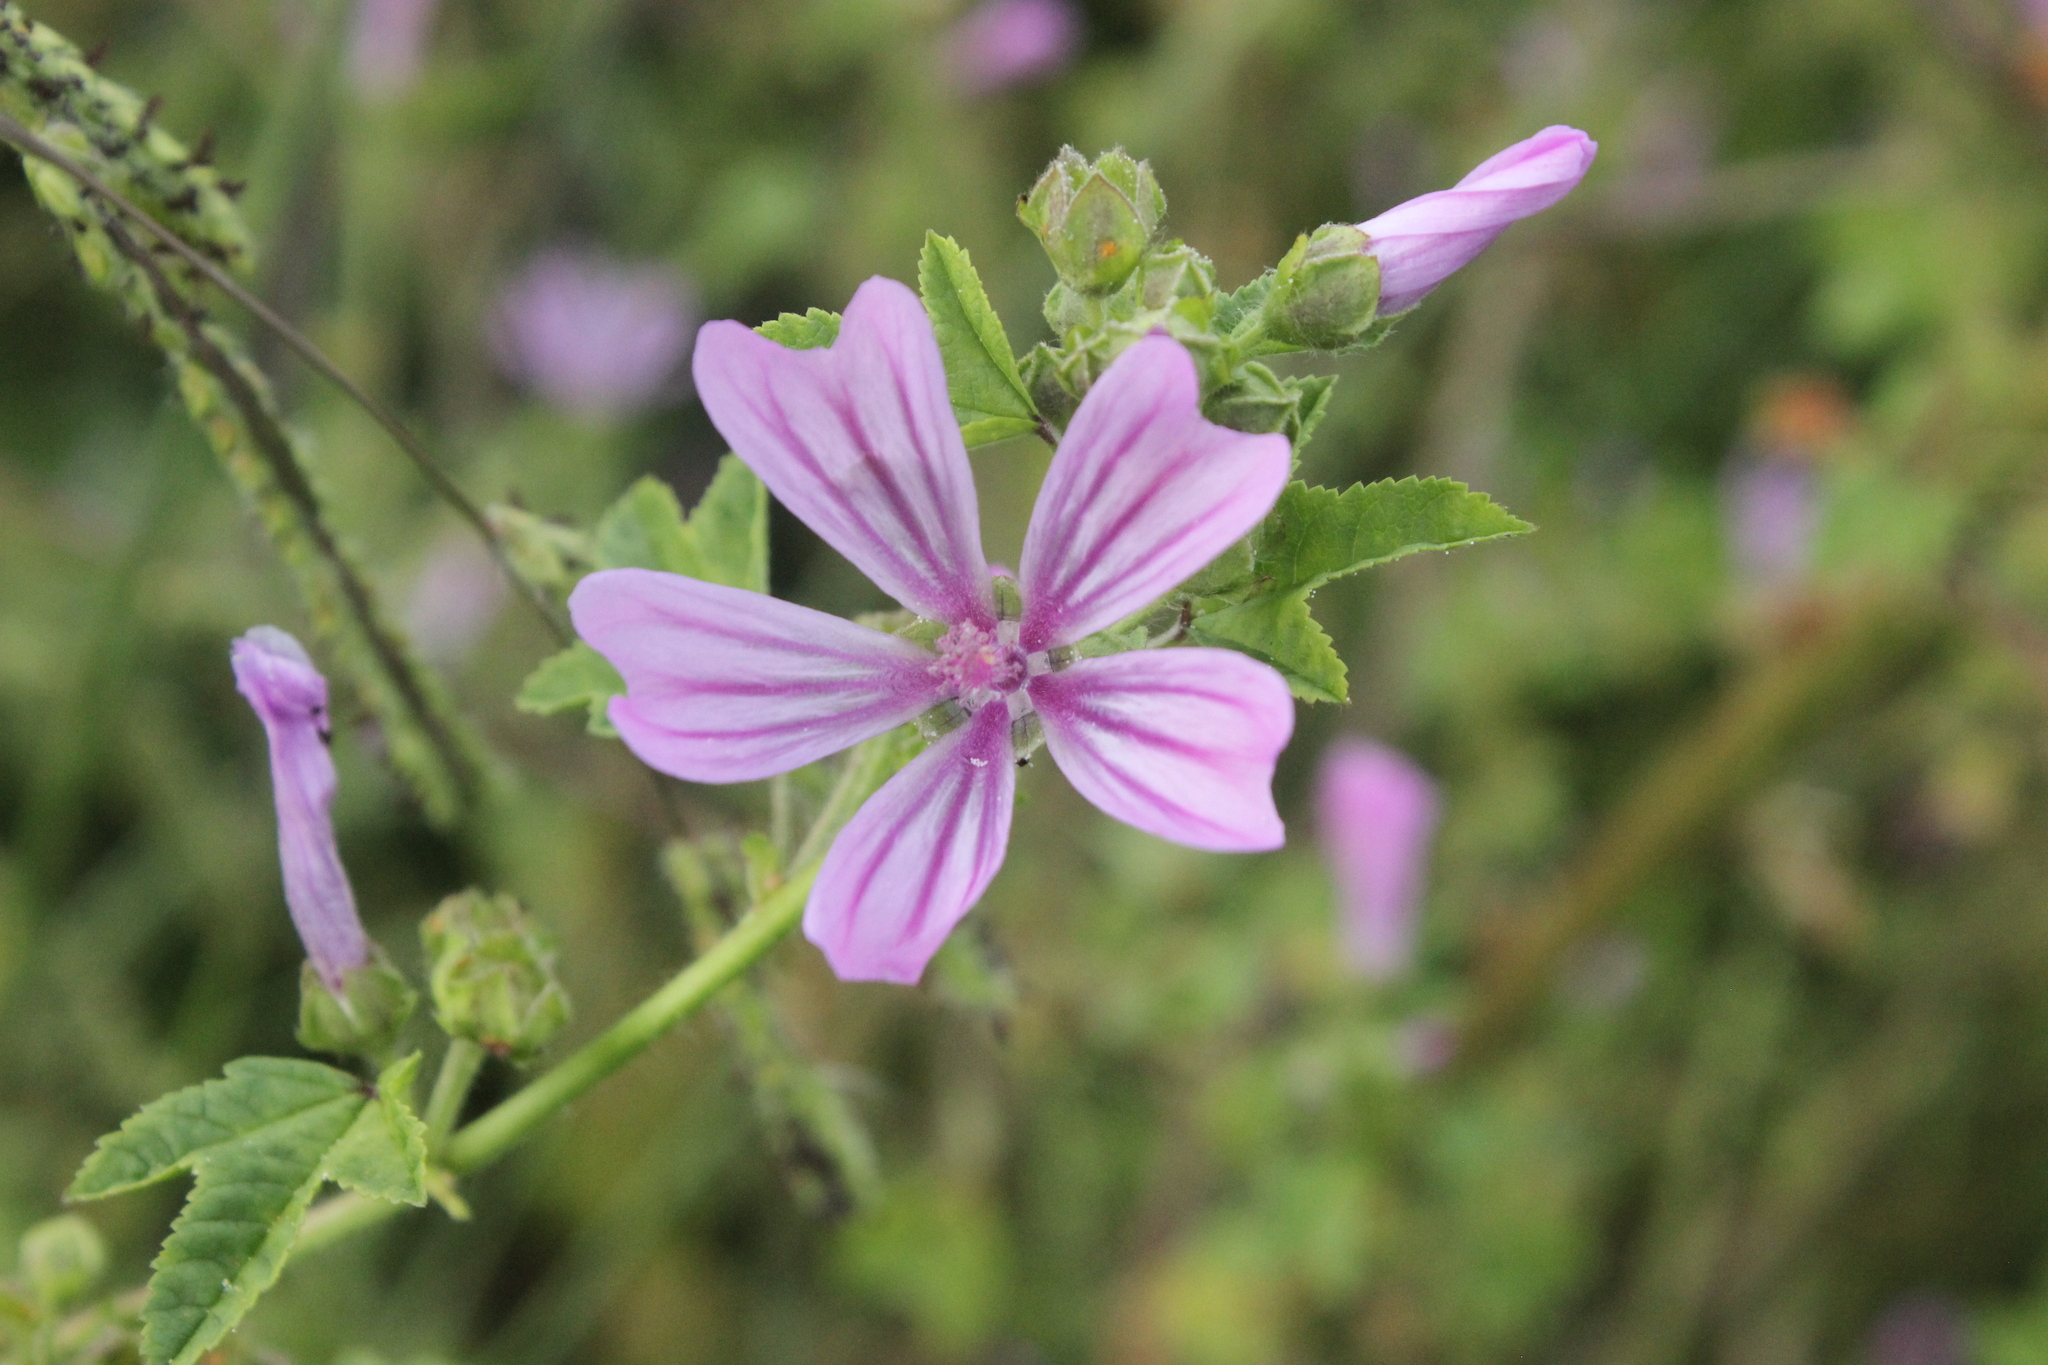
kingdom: Plantae
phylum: Tracheophyta
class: Magnoliopsida
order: Malvales
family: Malvaceae
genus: Malva
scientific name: Malva sylvestris
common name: Common mallow
